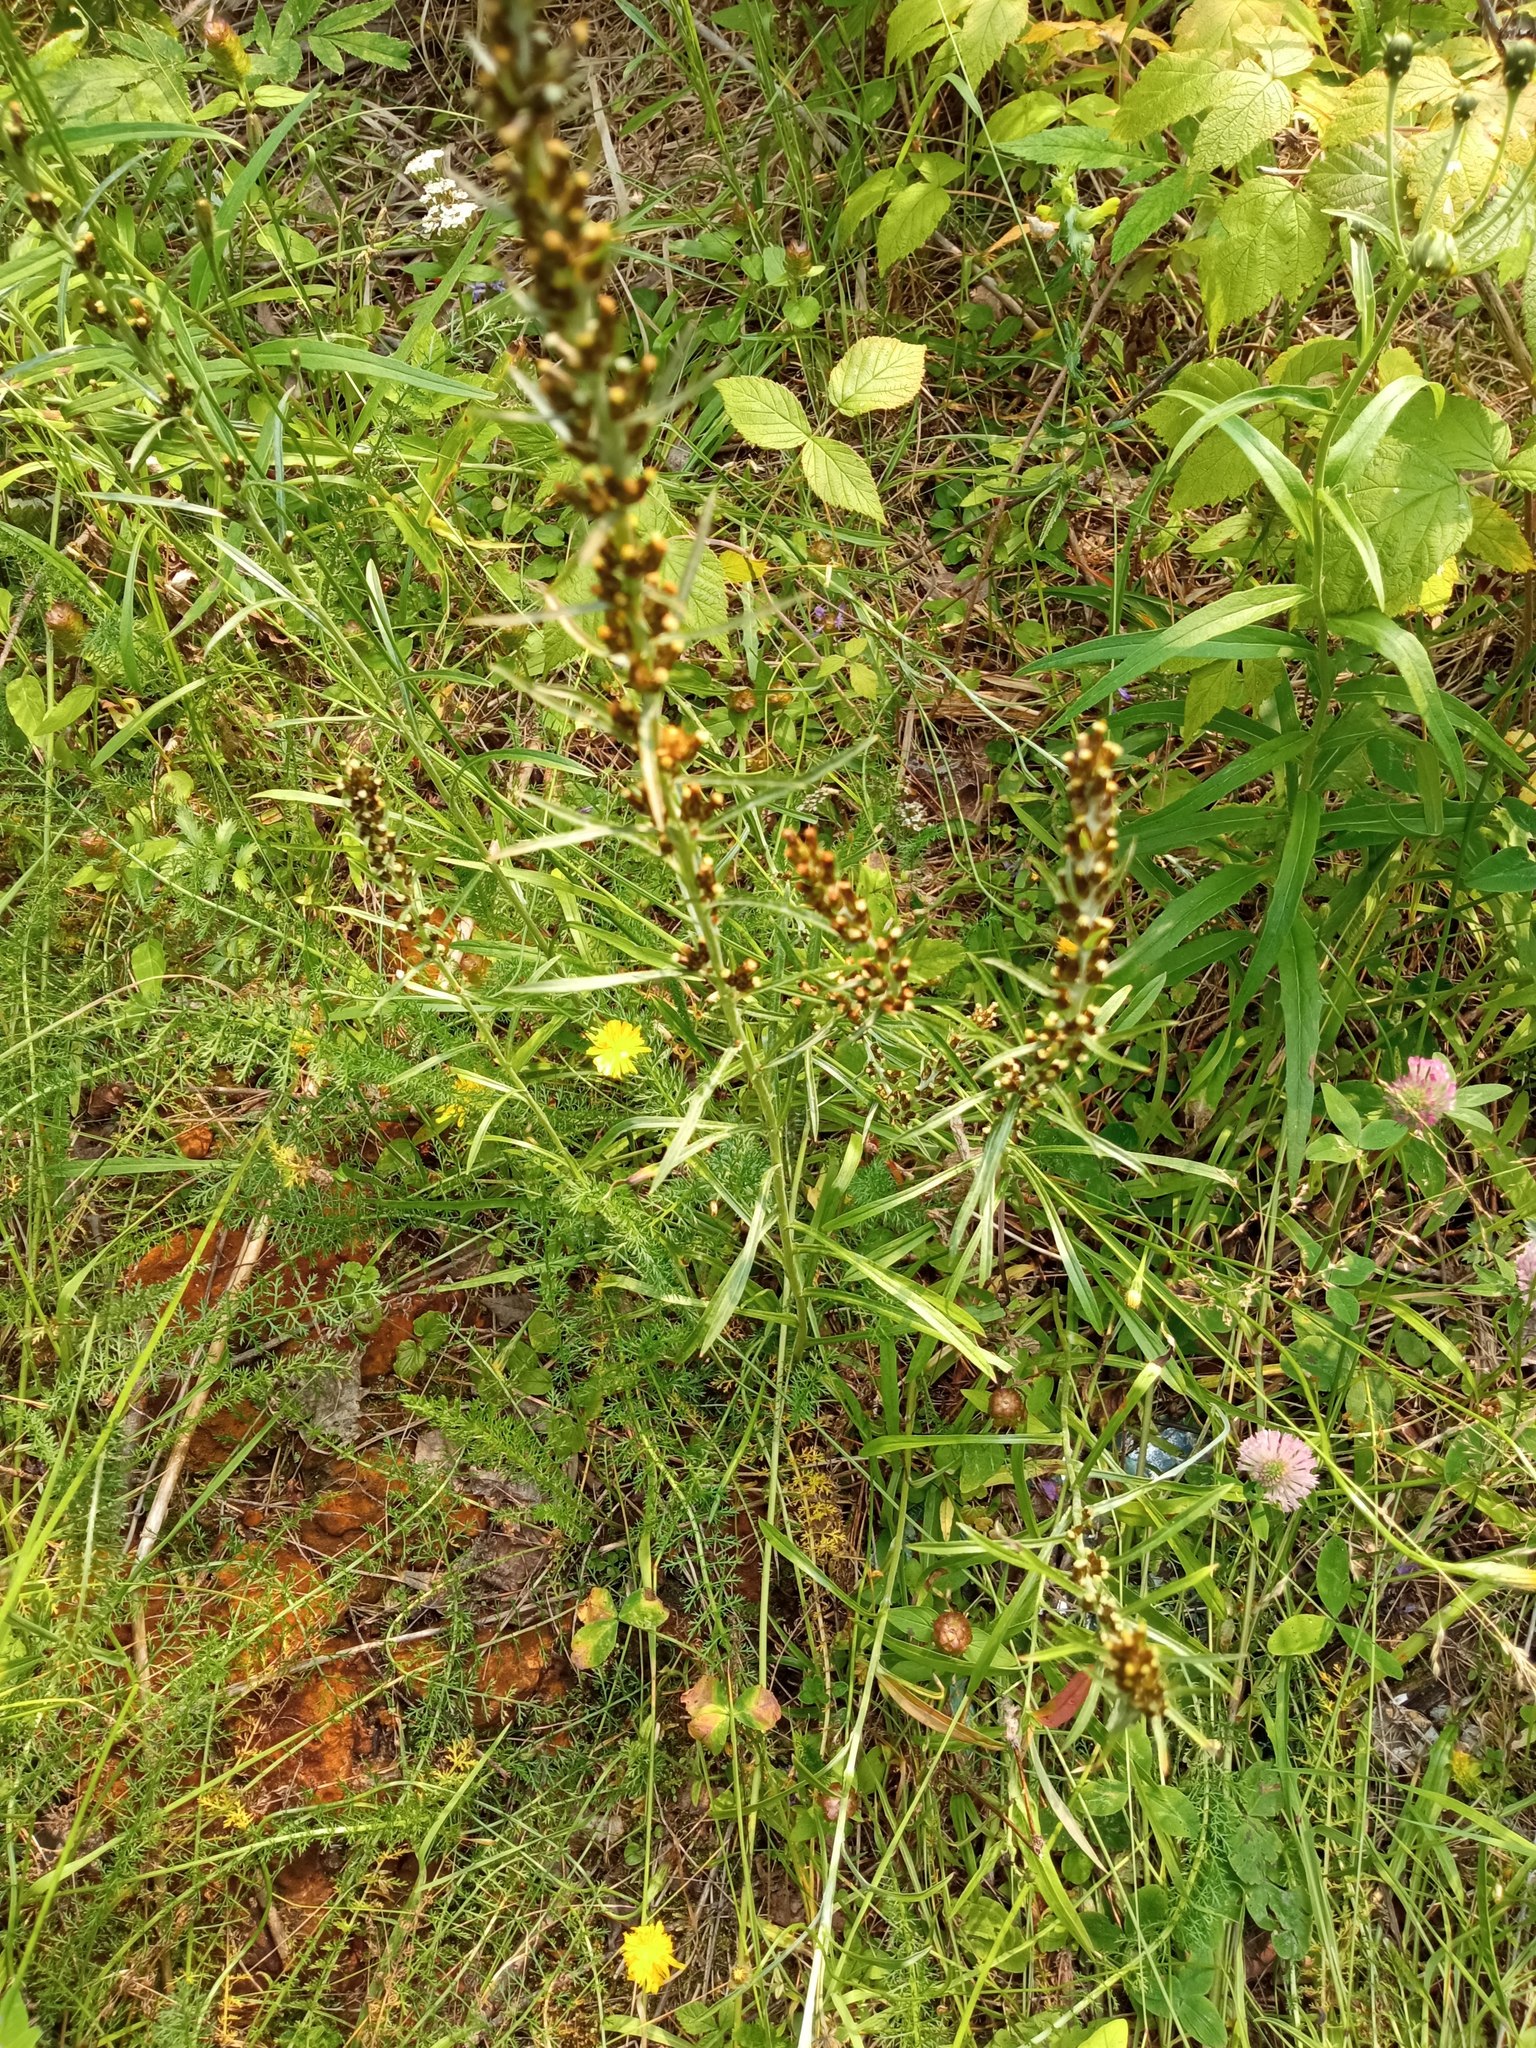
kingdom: Plantae
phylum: Tracheophyta
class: Magnoliopsida
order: Asterales
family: Asteraceae
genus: Omalotheca
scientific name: Omalotheca sylvatica
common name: Heath cudweed
